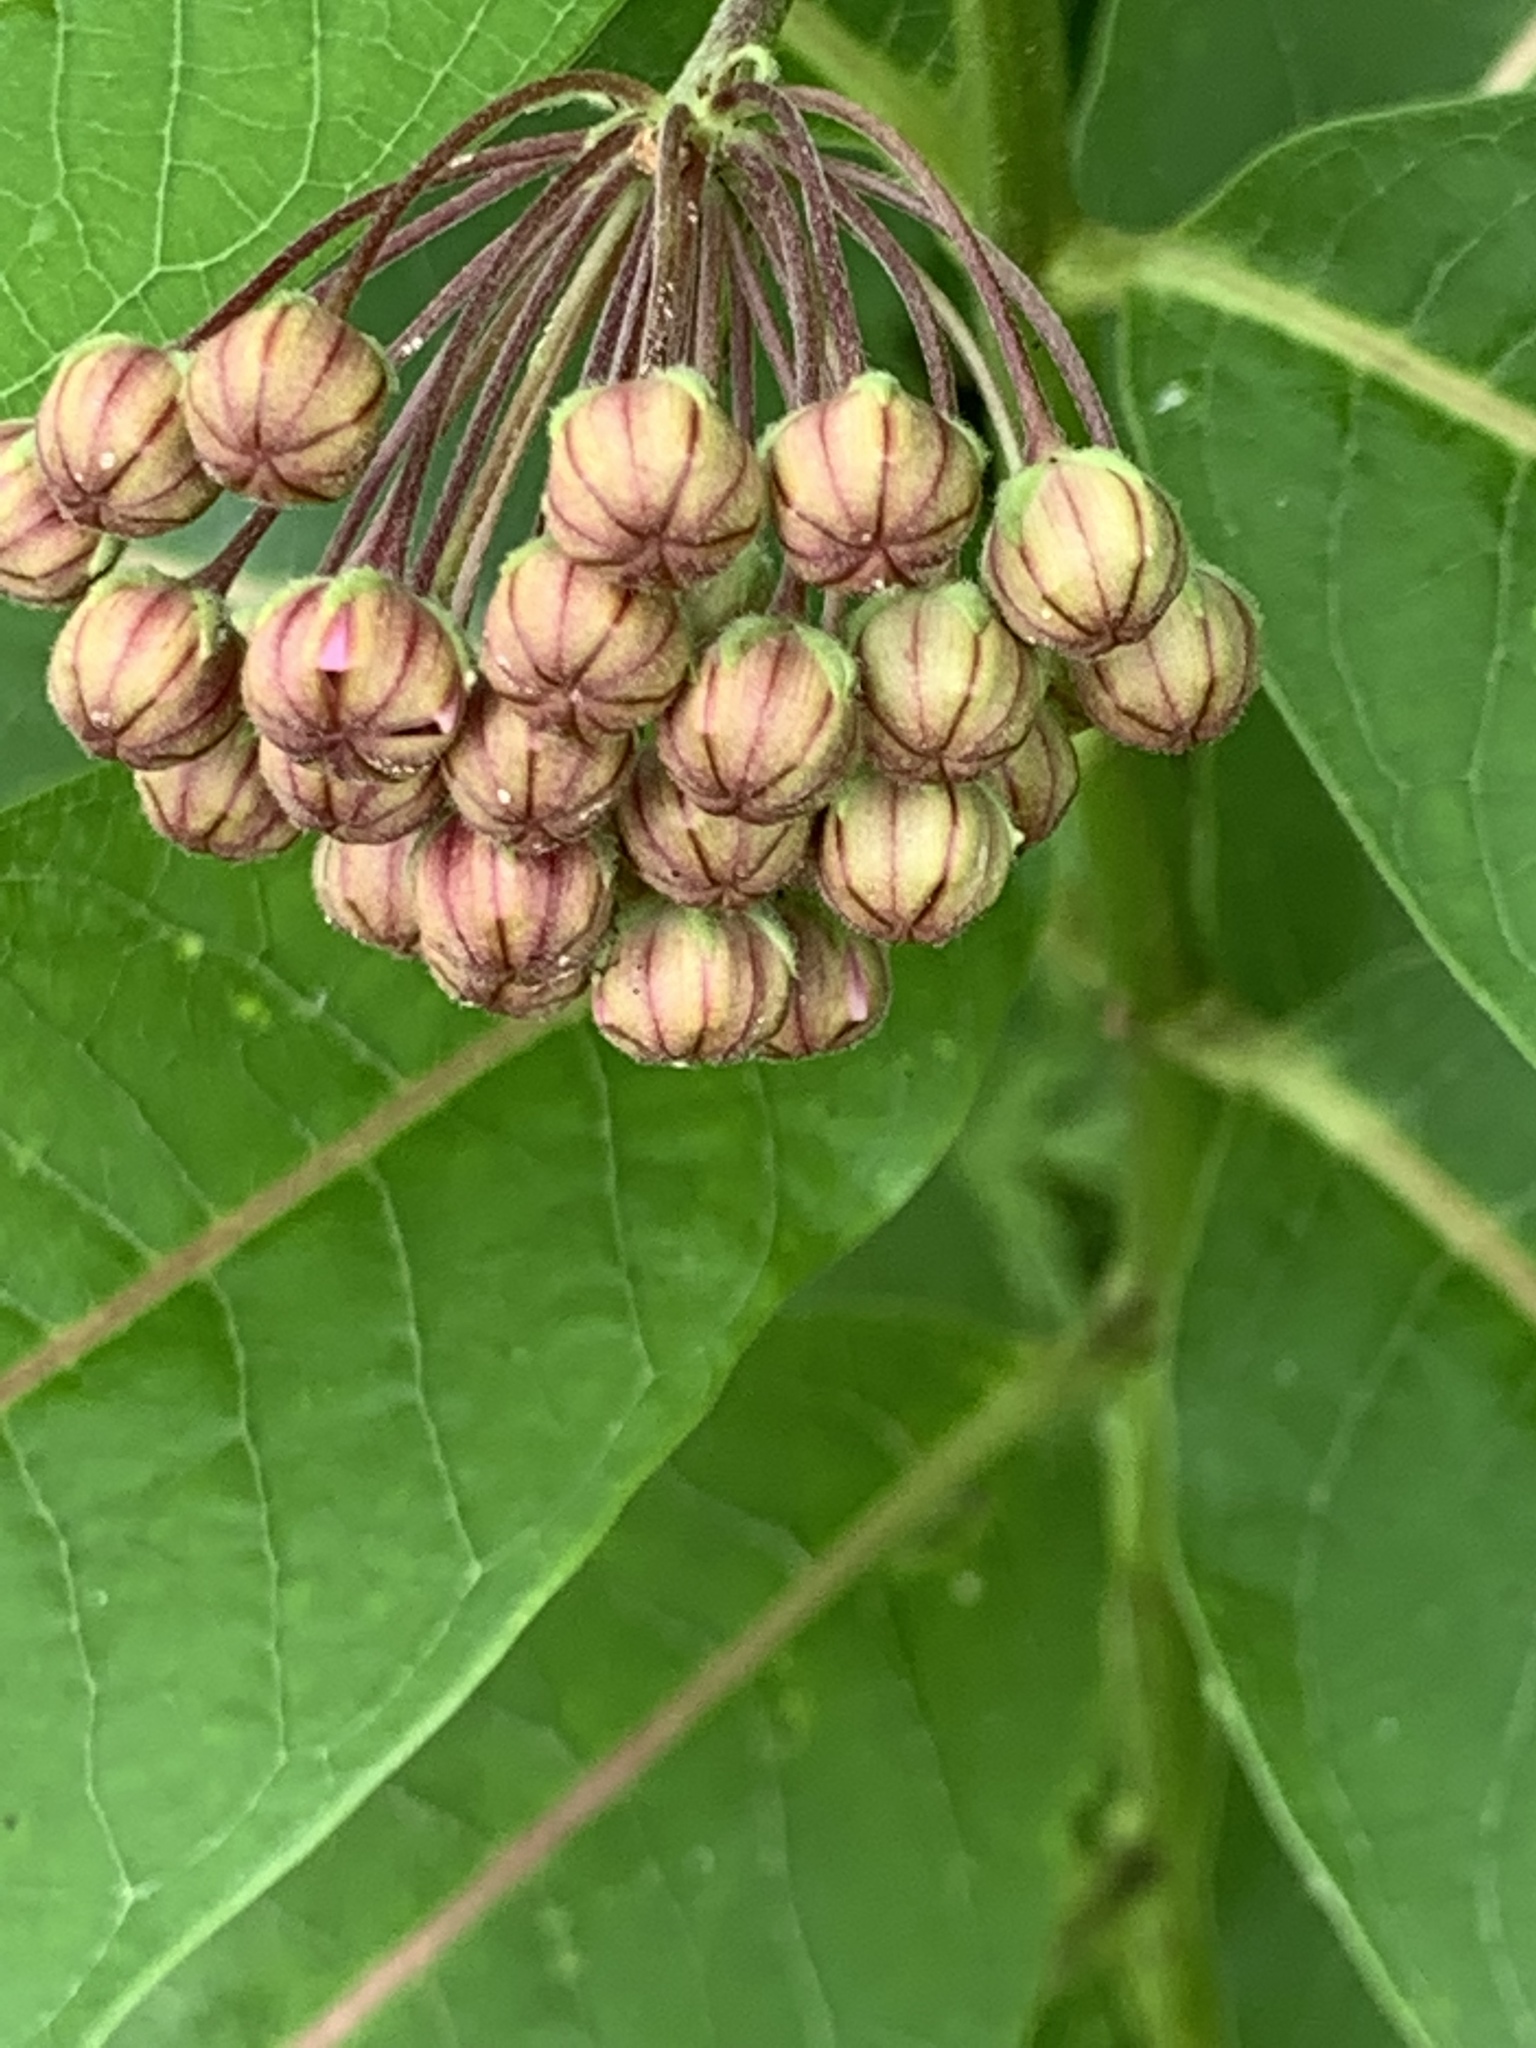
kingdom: Plantae
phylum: Tracheophyta
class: Magnoliopsida
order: Gentianales
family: Apocynaceae
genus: Asclepias
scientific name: Asclepias syriaca
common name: Common milkweed
